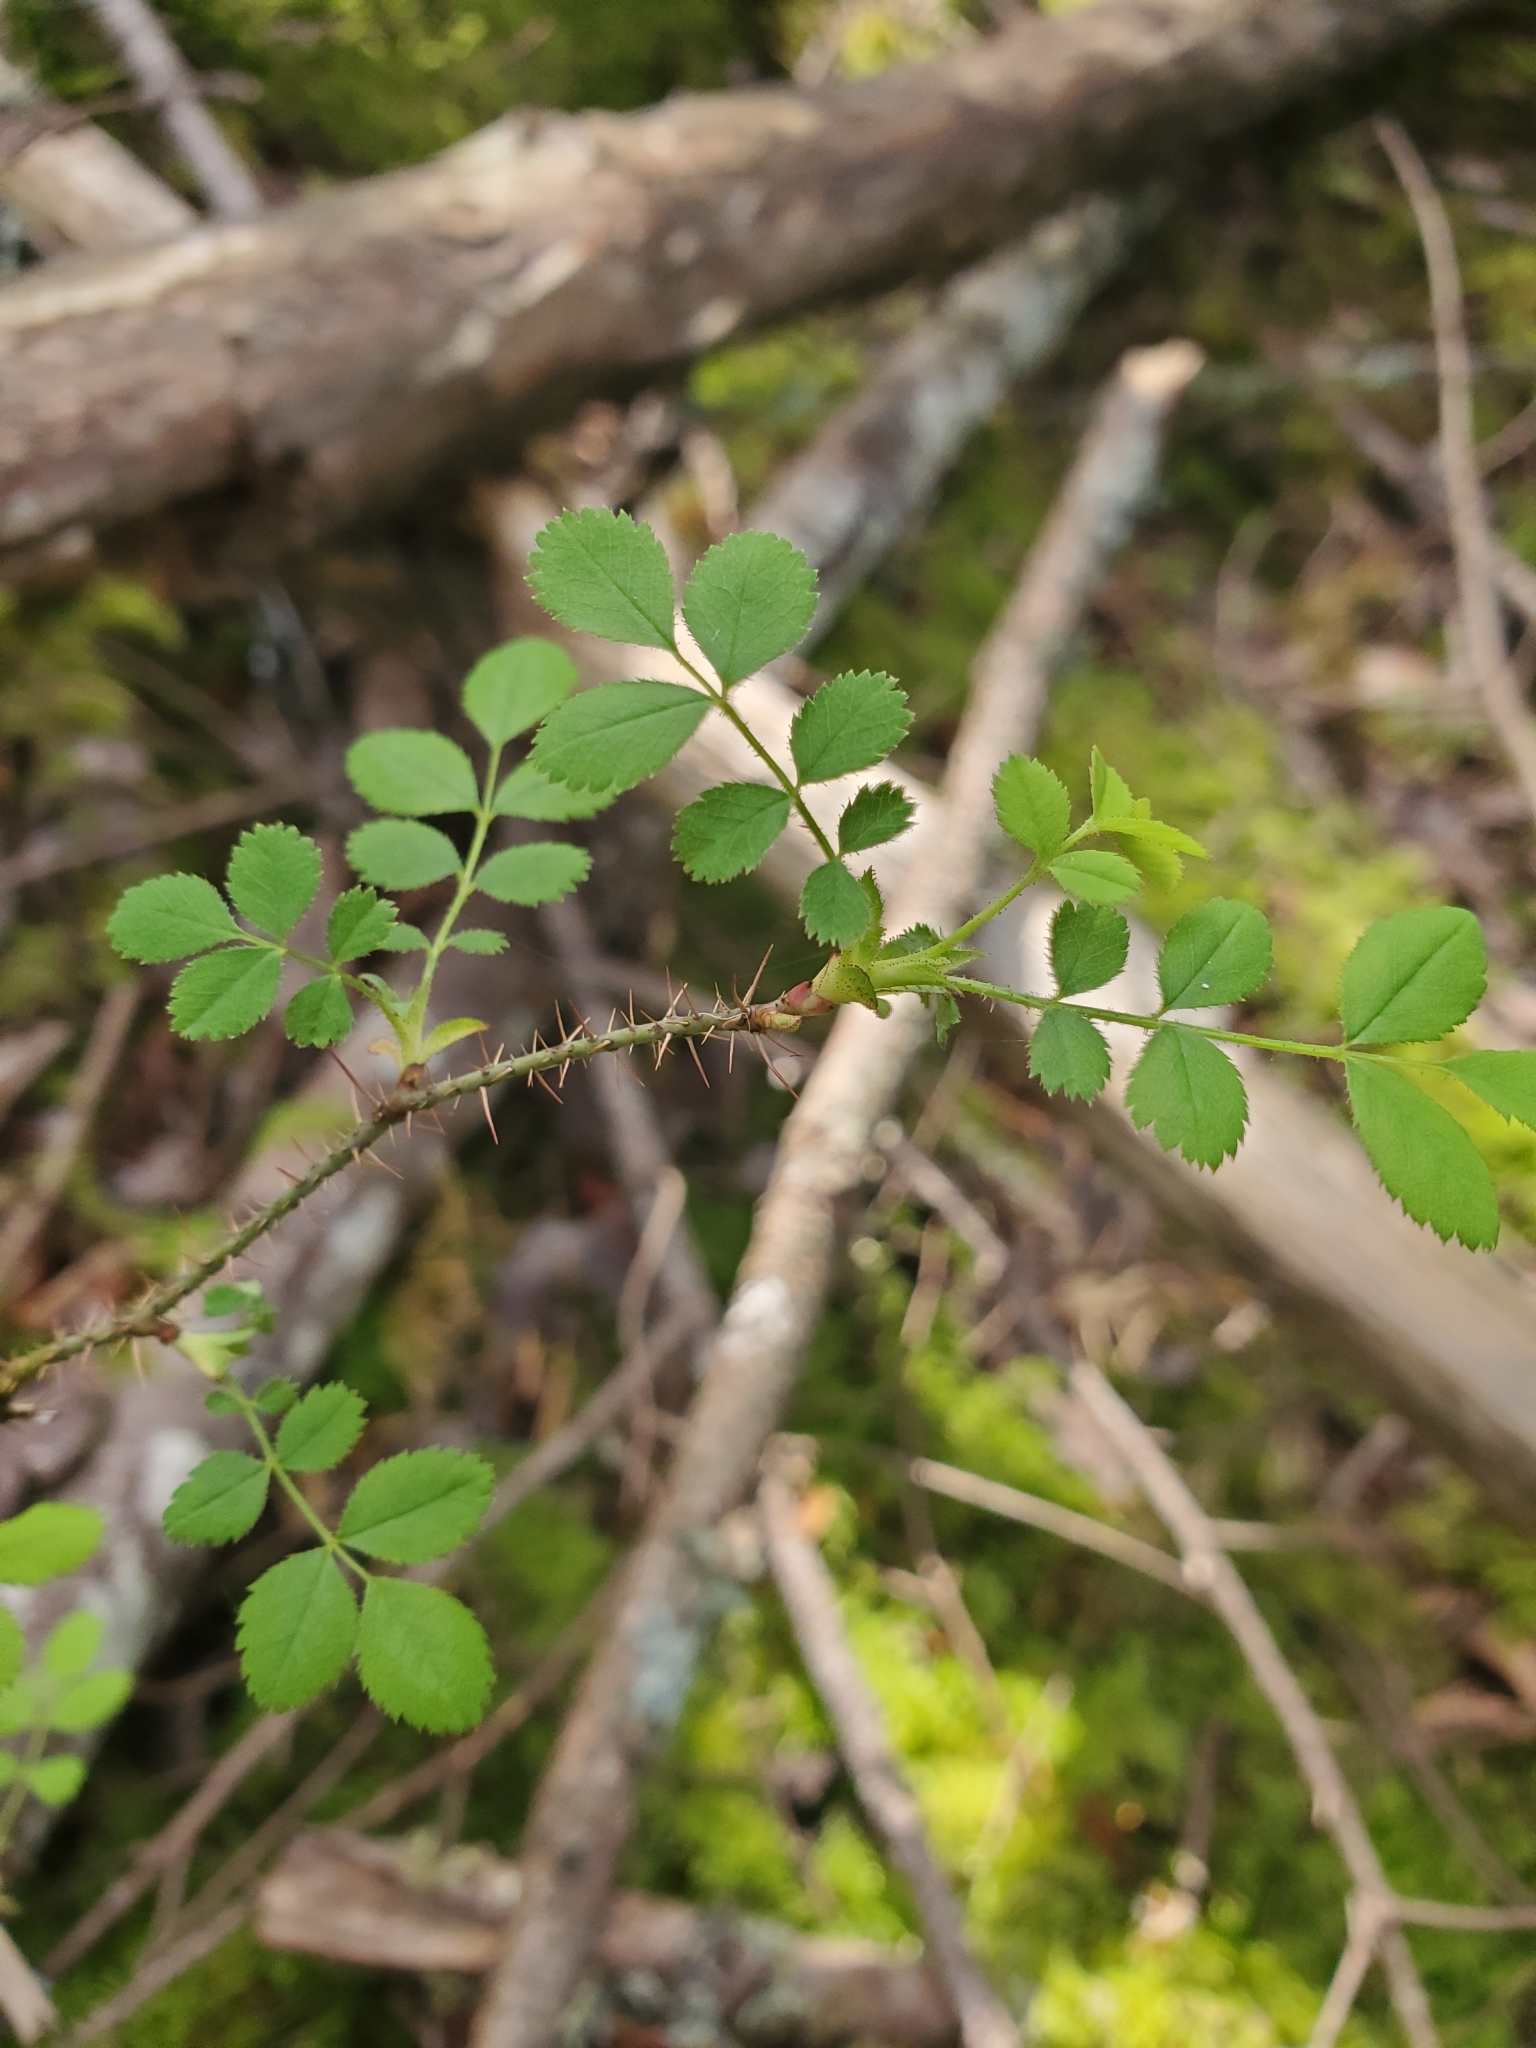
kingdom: Plantae
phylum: Tracheophyta
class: Magnoliopsida
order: Rosales
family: Rosaceae
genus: Rosa
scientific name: Rosa gymnocarpa
